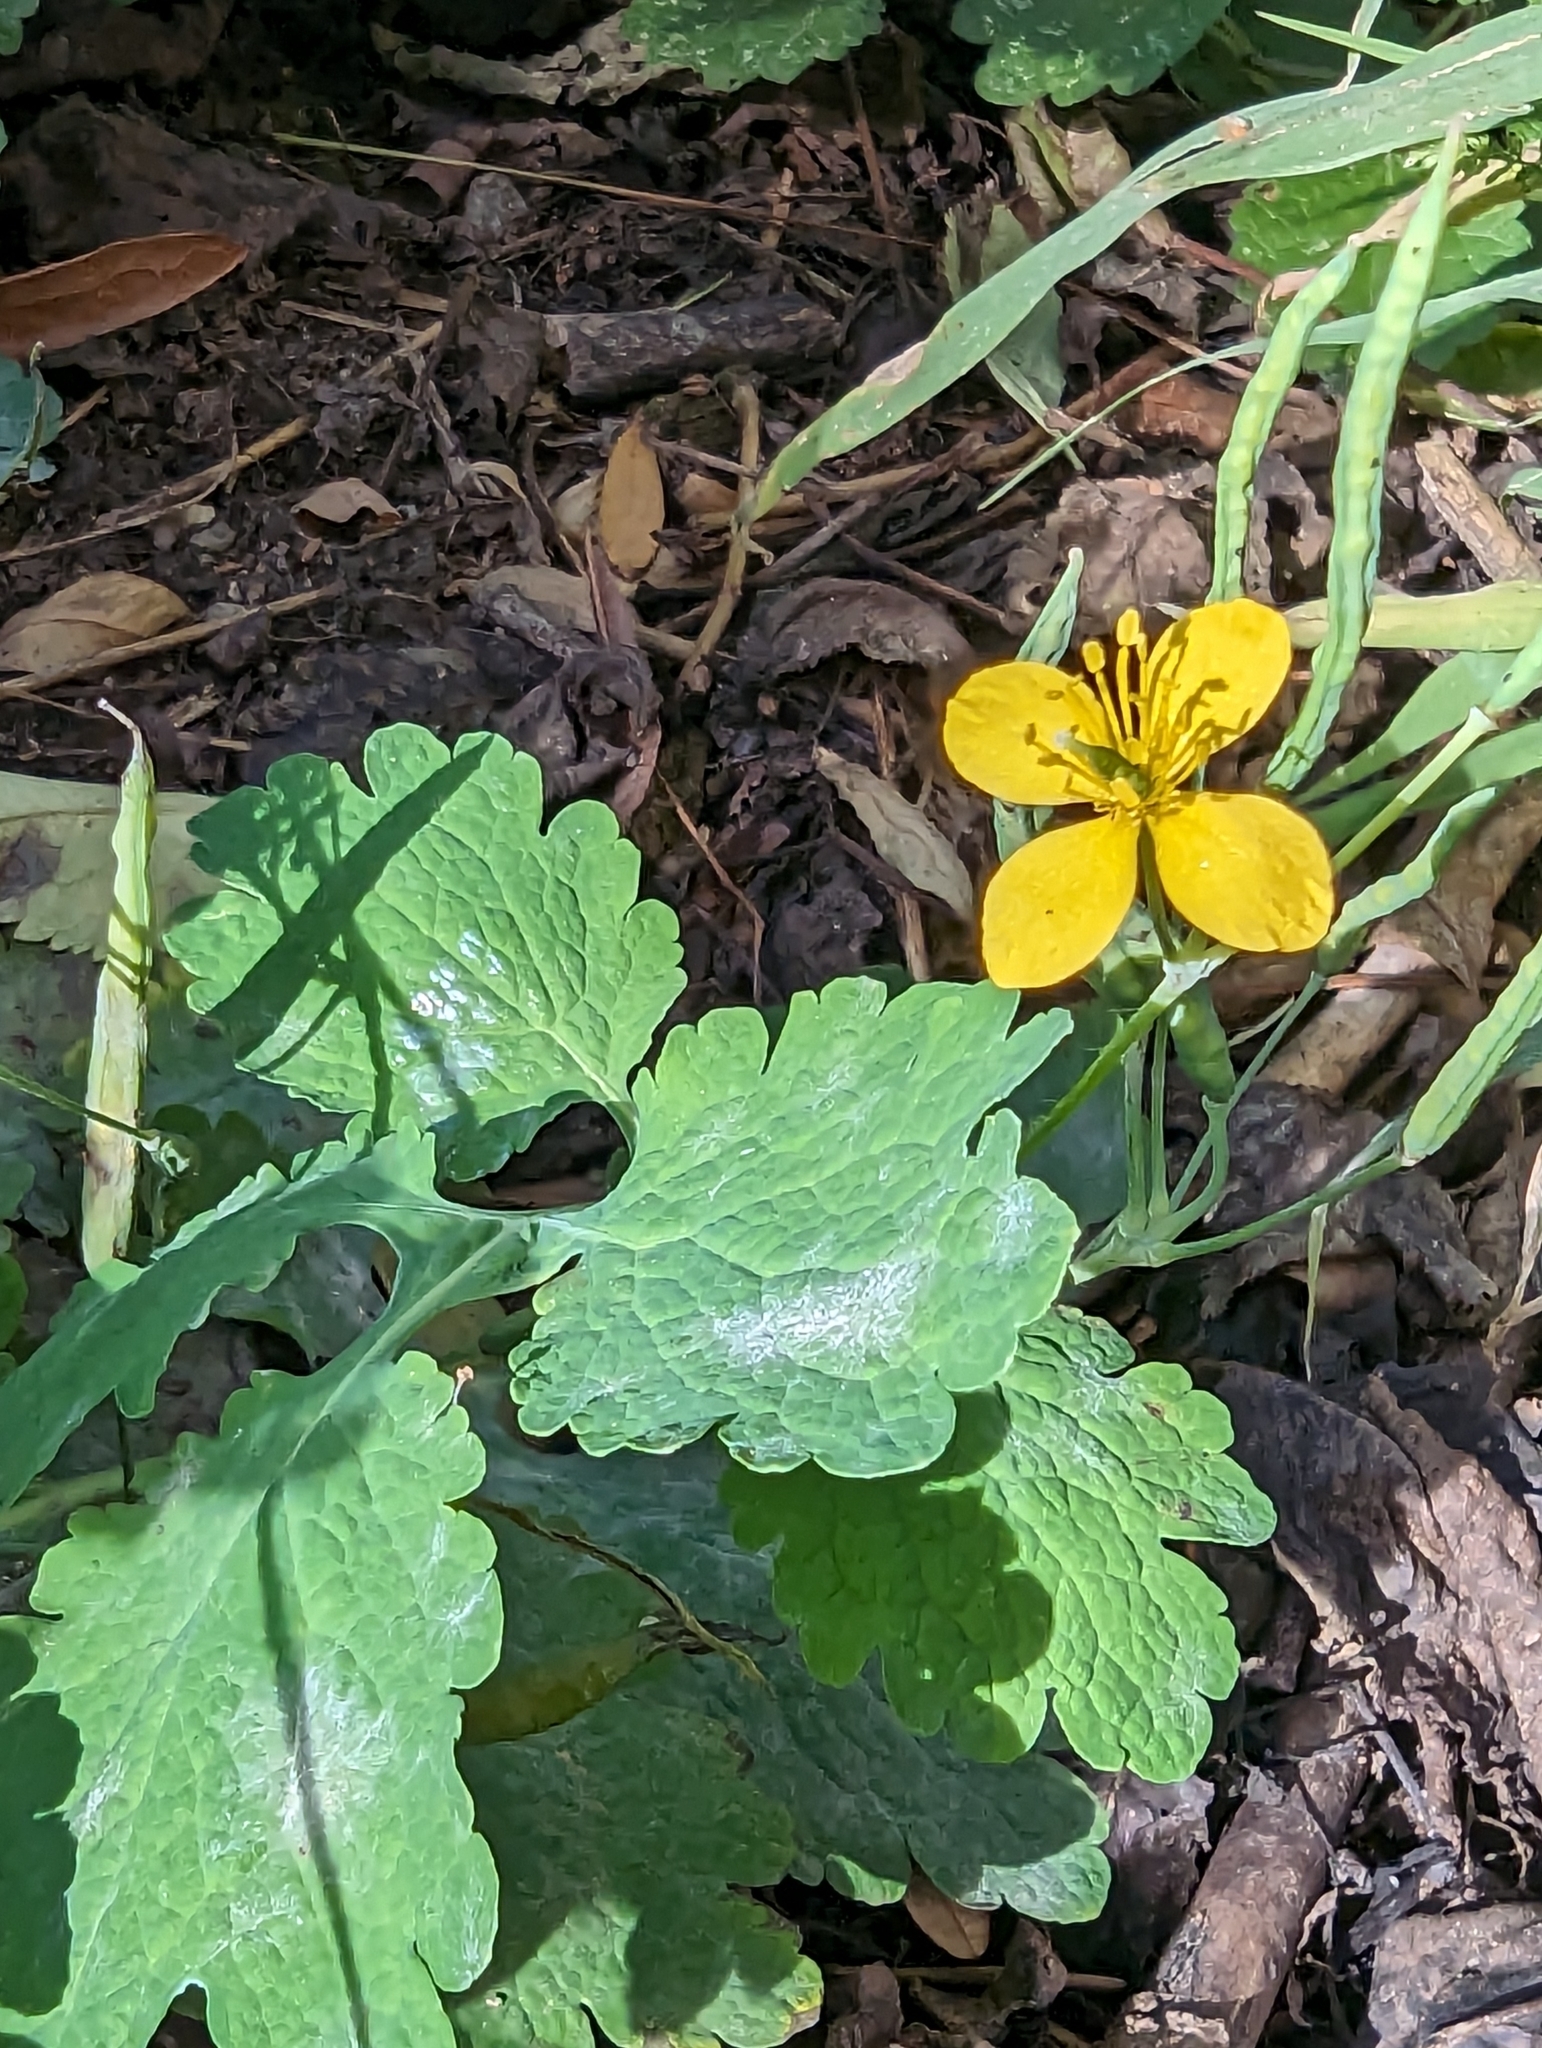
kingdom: Plantae
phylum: Tracheophyta
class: Magnoliopsida
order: Ranunculales
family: Papaveraceae
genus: Chelidonium
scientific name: Chelidonium majus
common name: Greater celandine
